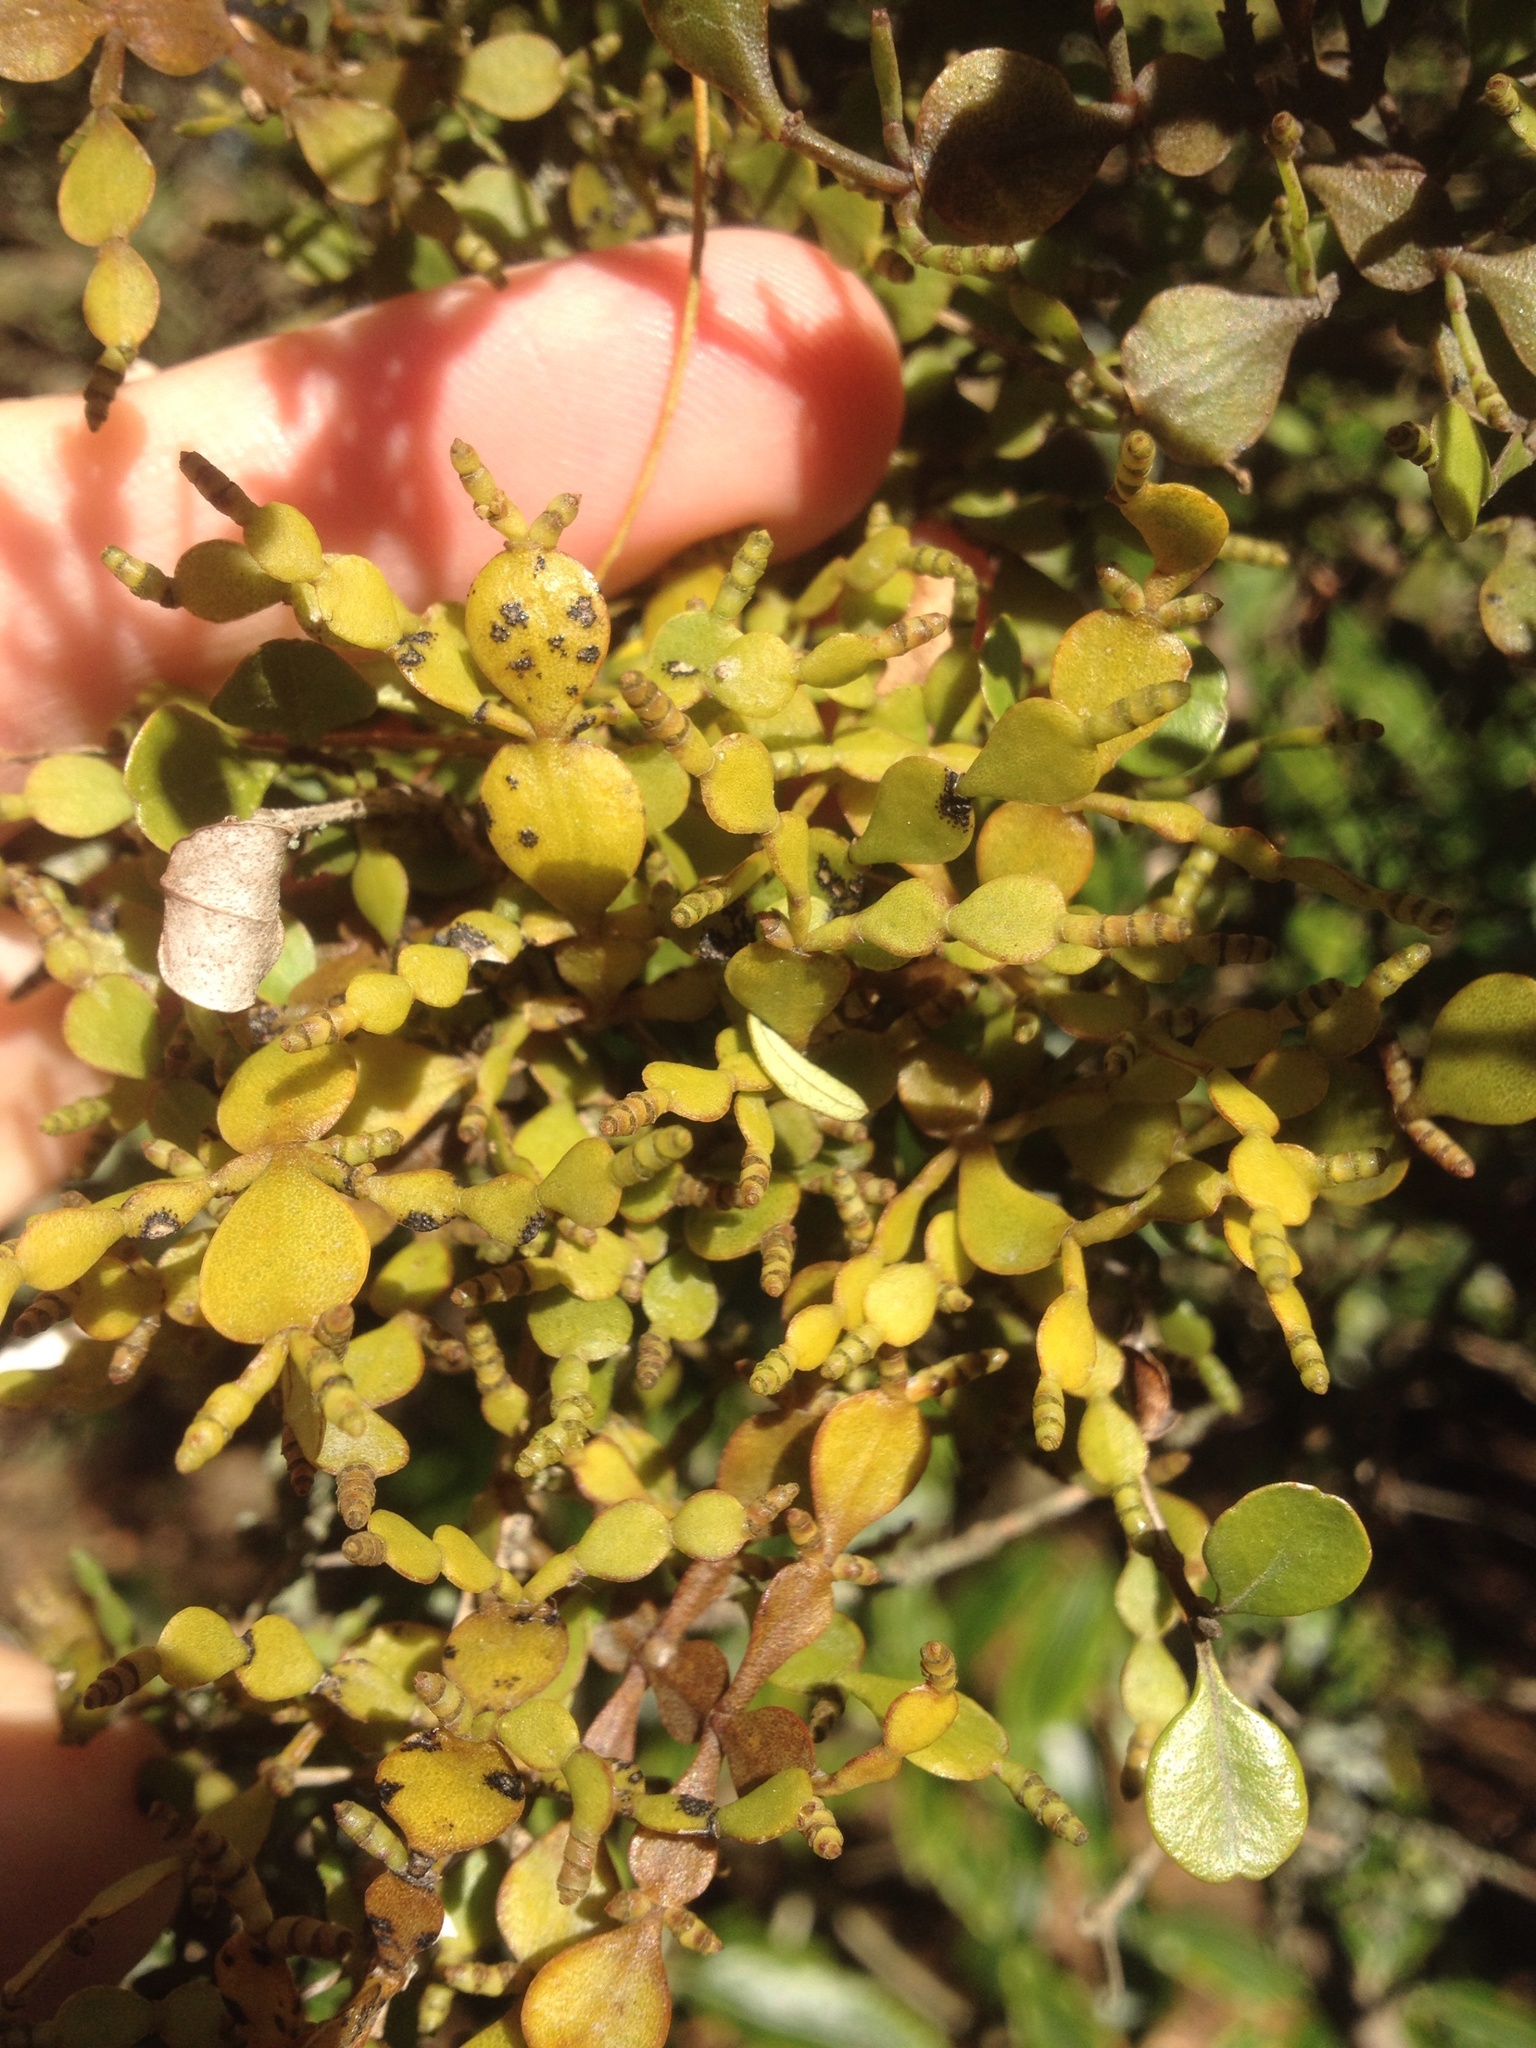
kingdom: Plantae
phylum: Tracheophyta
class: Magnoliopsida
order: Santalales
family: Viscaceae
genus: Korthalsella
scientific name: Korthalsella lindsayi
